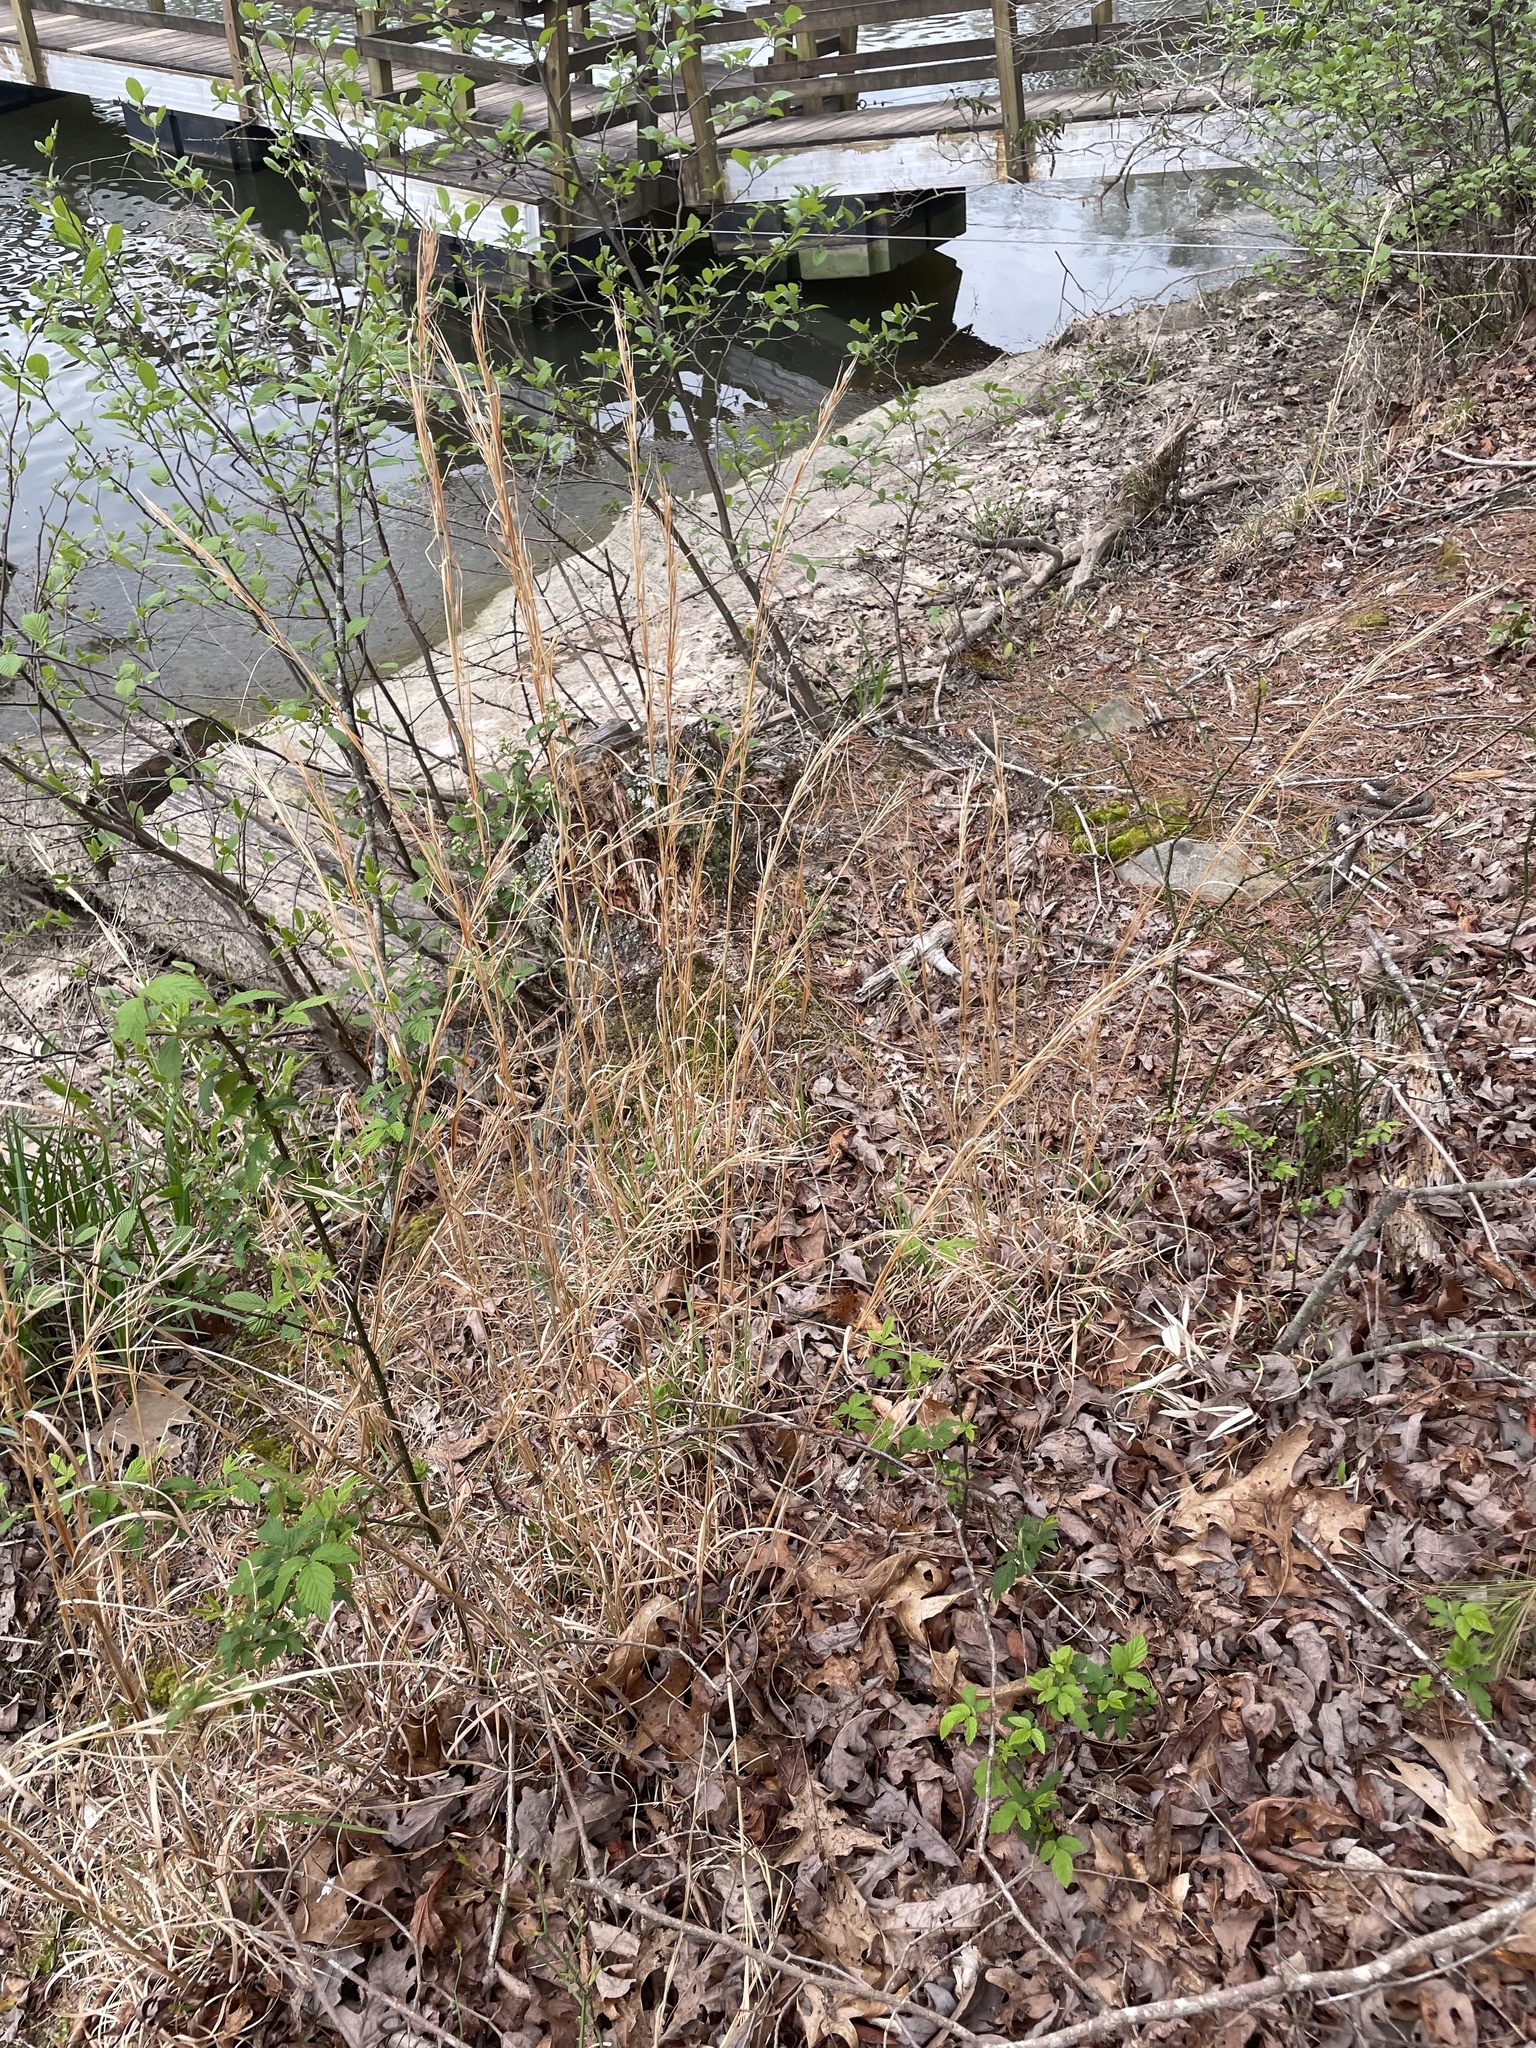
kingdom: Plantae
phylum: Tracheophyta
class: Liliopsida
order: Poales
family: Poaceae
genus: Andropogon
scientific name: Andropogon virginicus
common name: Broomsedge bluestem
